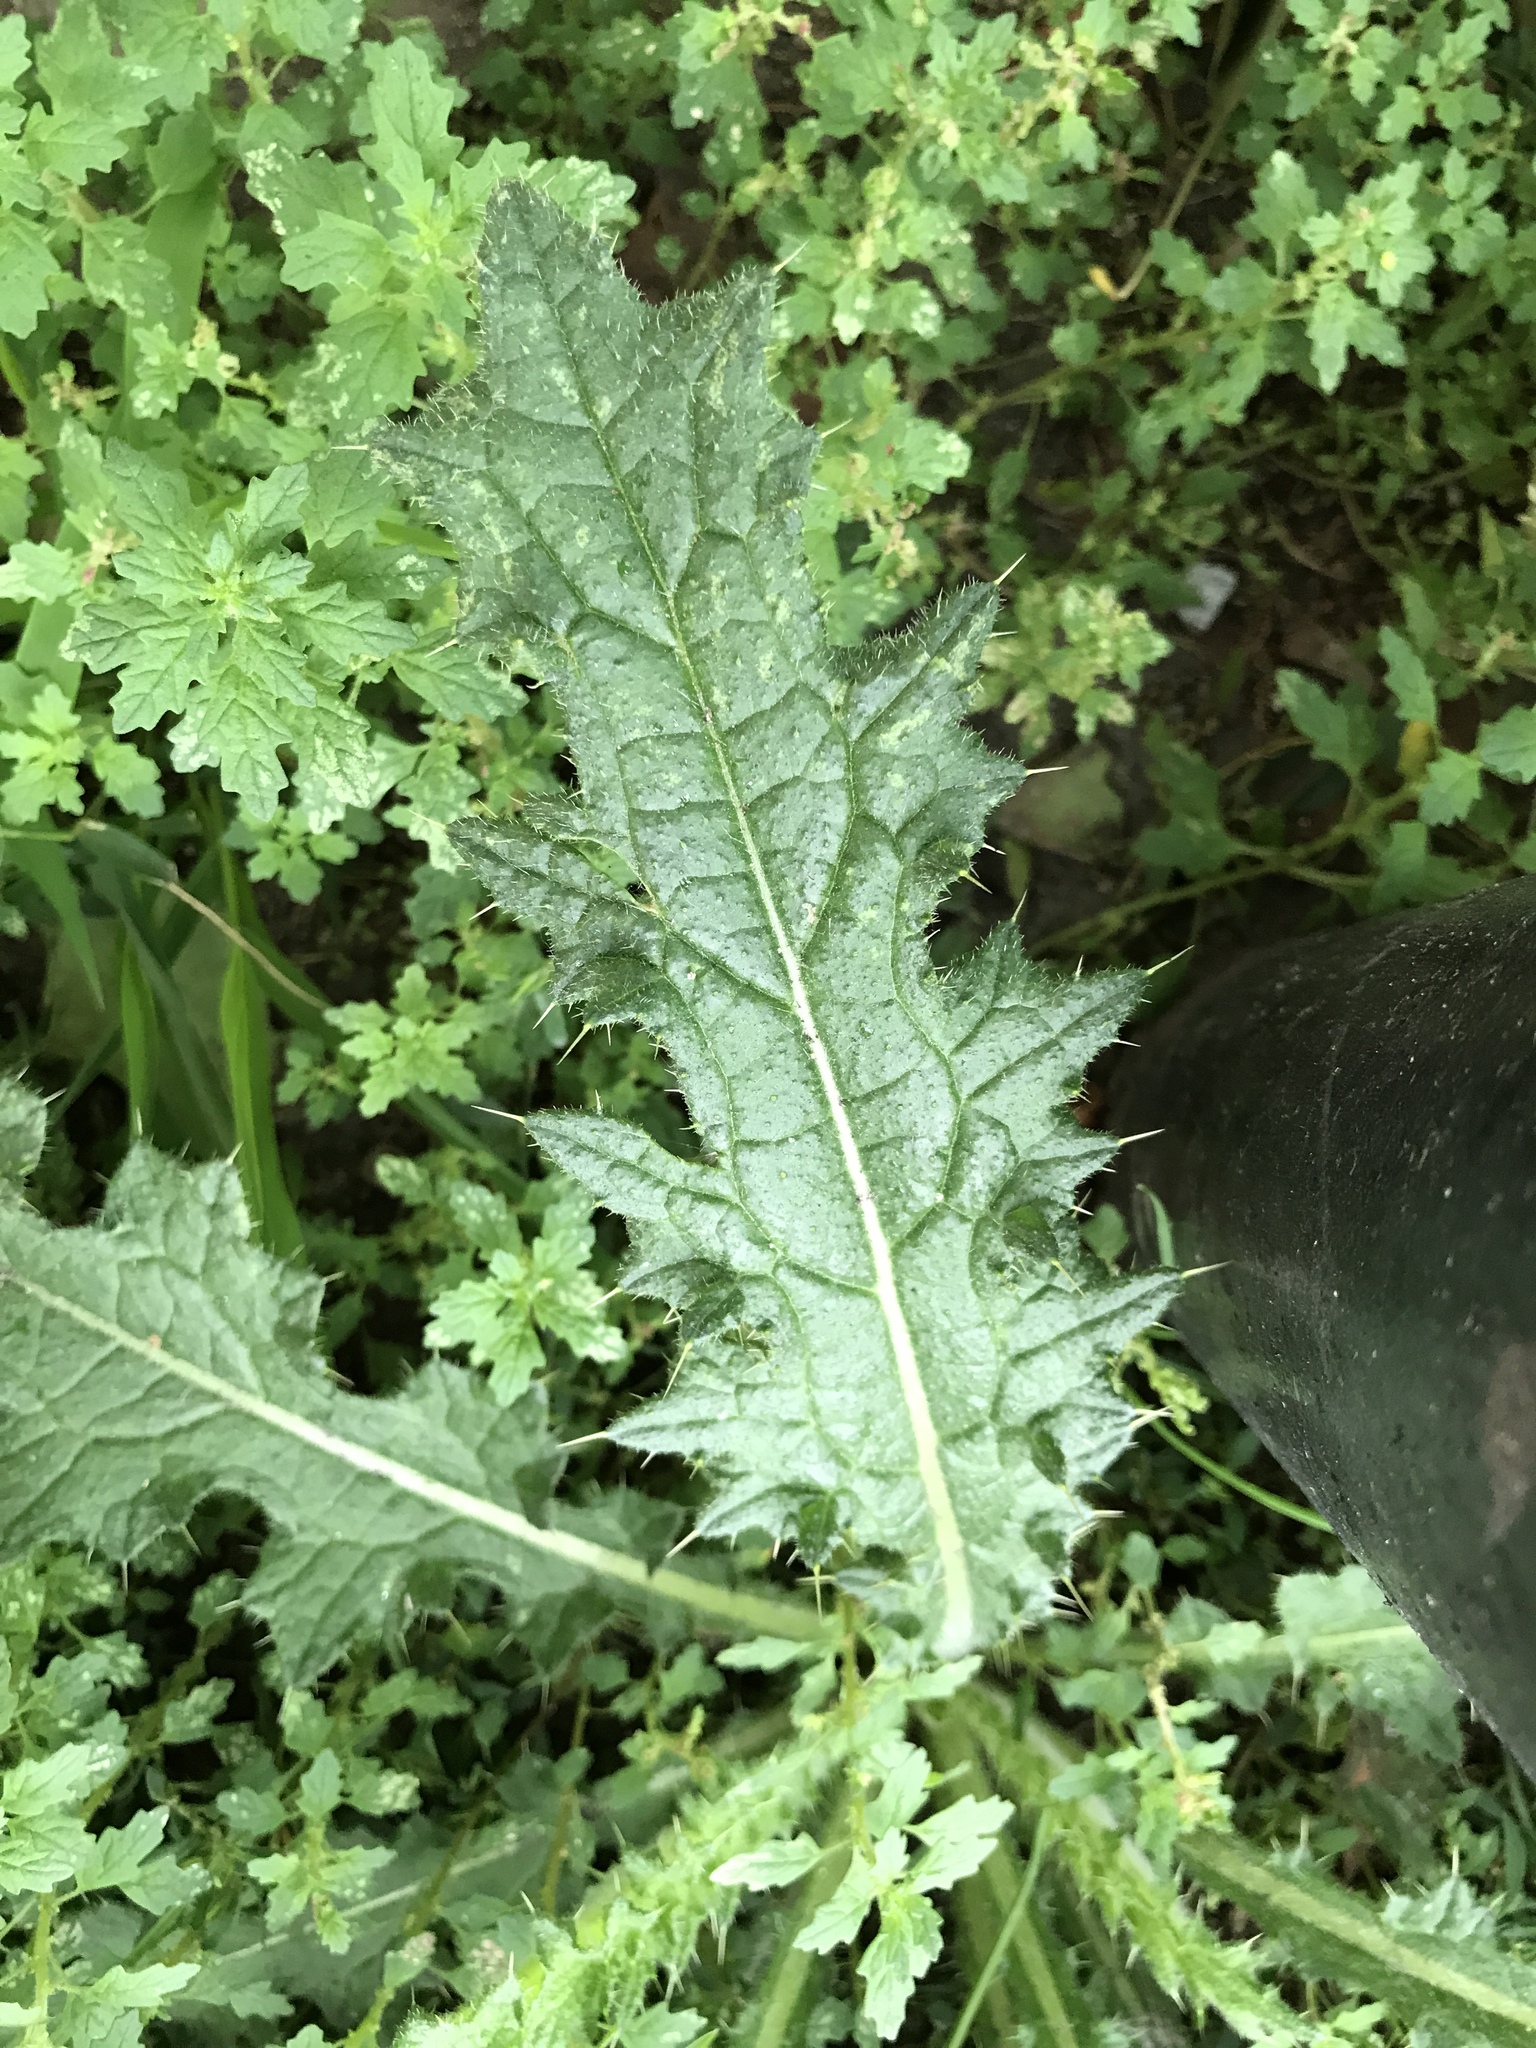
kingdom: Plantae
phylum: Tracheophyta
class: Magnoliopsida
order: Asterales
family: Asteraceae
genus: Cirsium
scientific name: Cirsium vulgare
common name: Bull thistle
